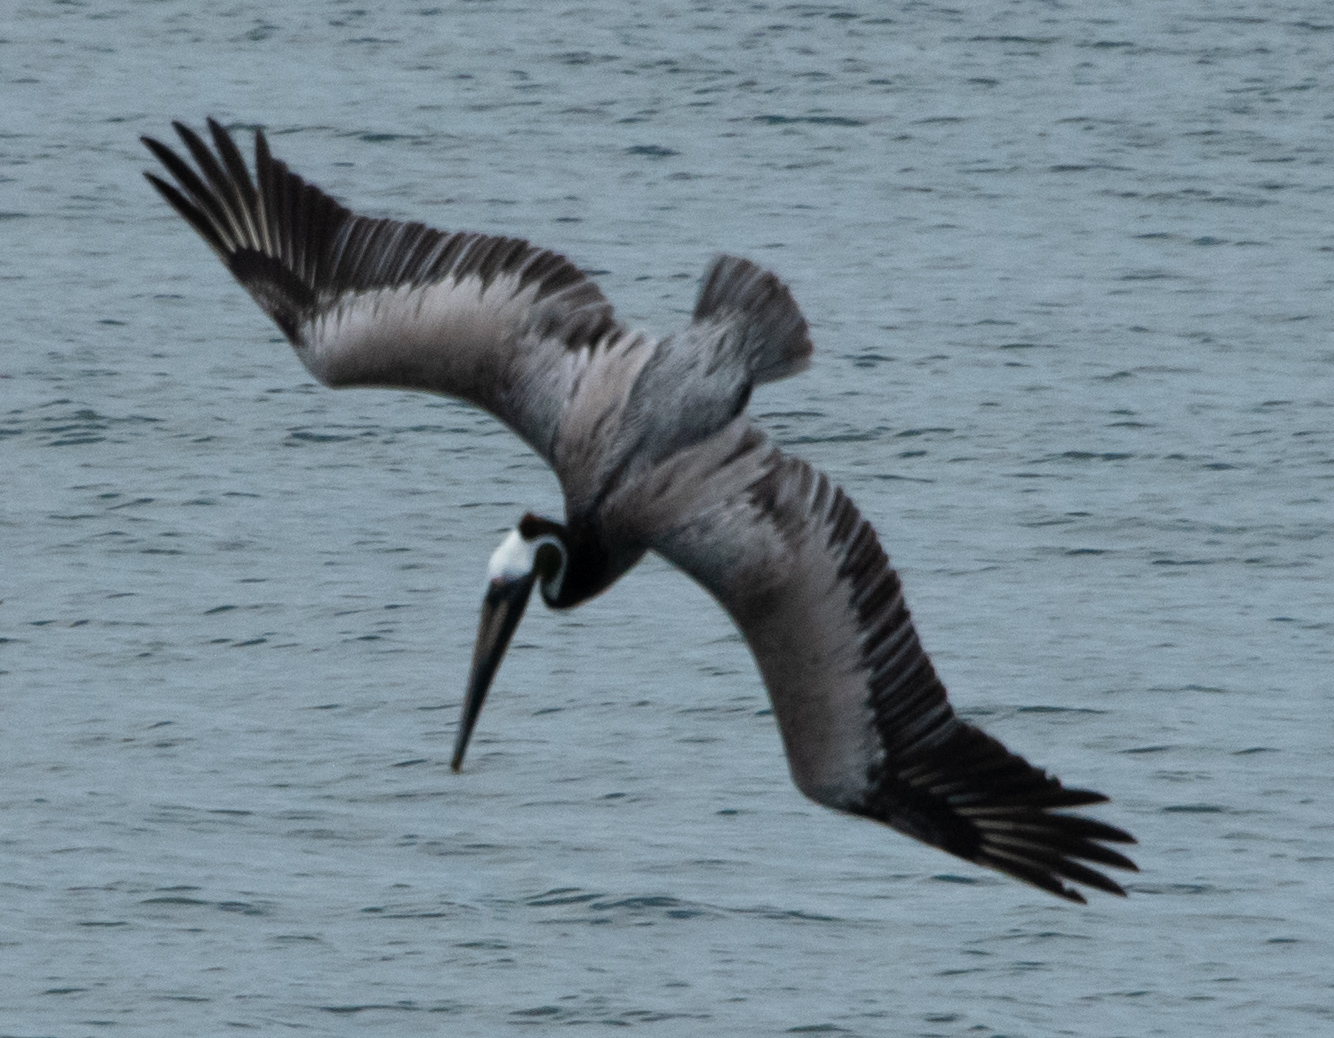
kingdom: Animalia
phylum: Chordata
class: Aves
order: Pelecaniformes
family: Pelecanidae
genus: Pelecanus
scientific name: Pelecanus occidentalis
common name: Brown pelican
